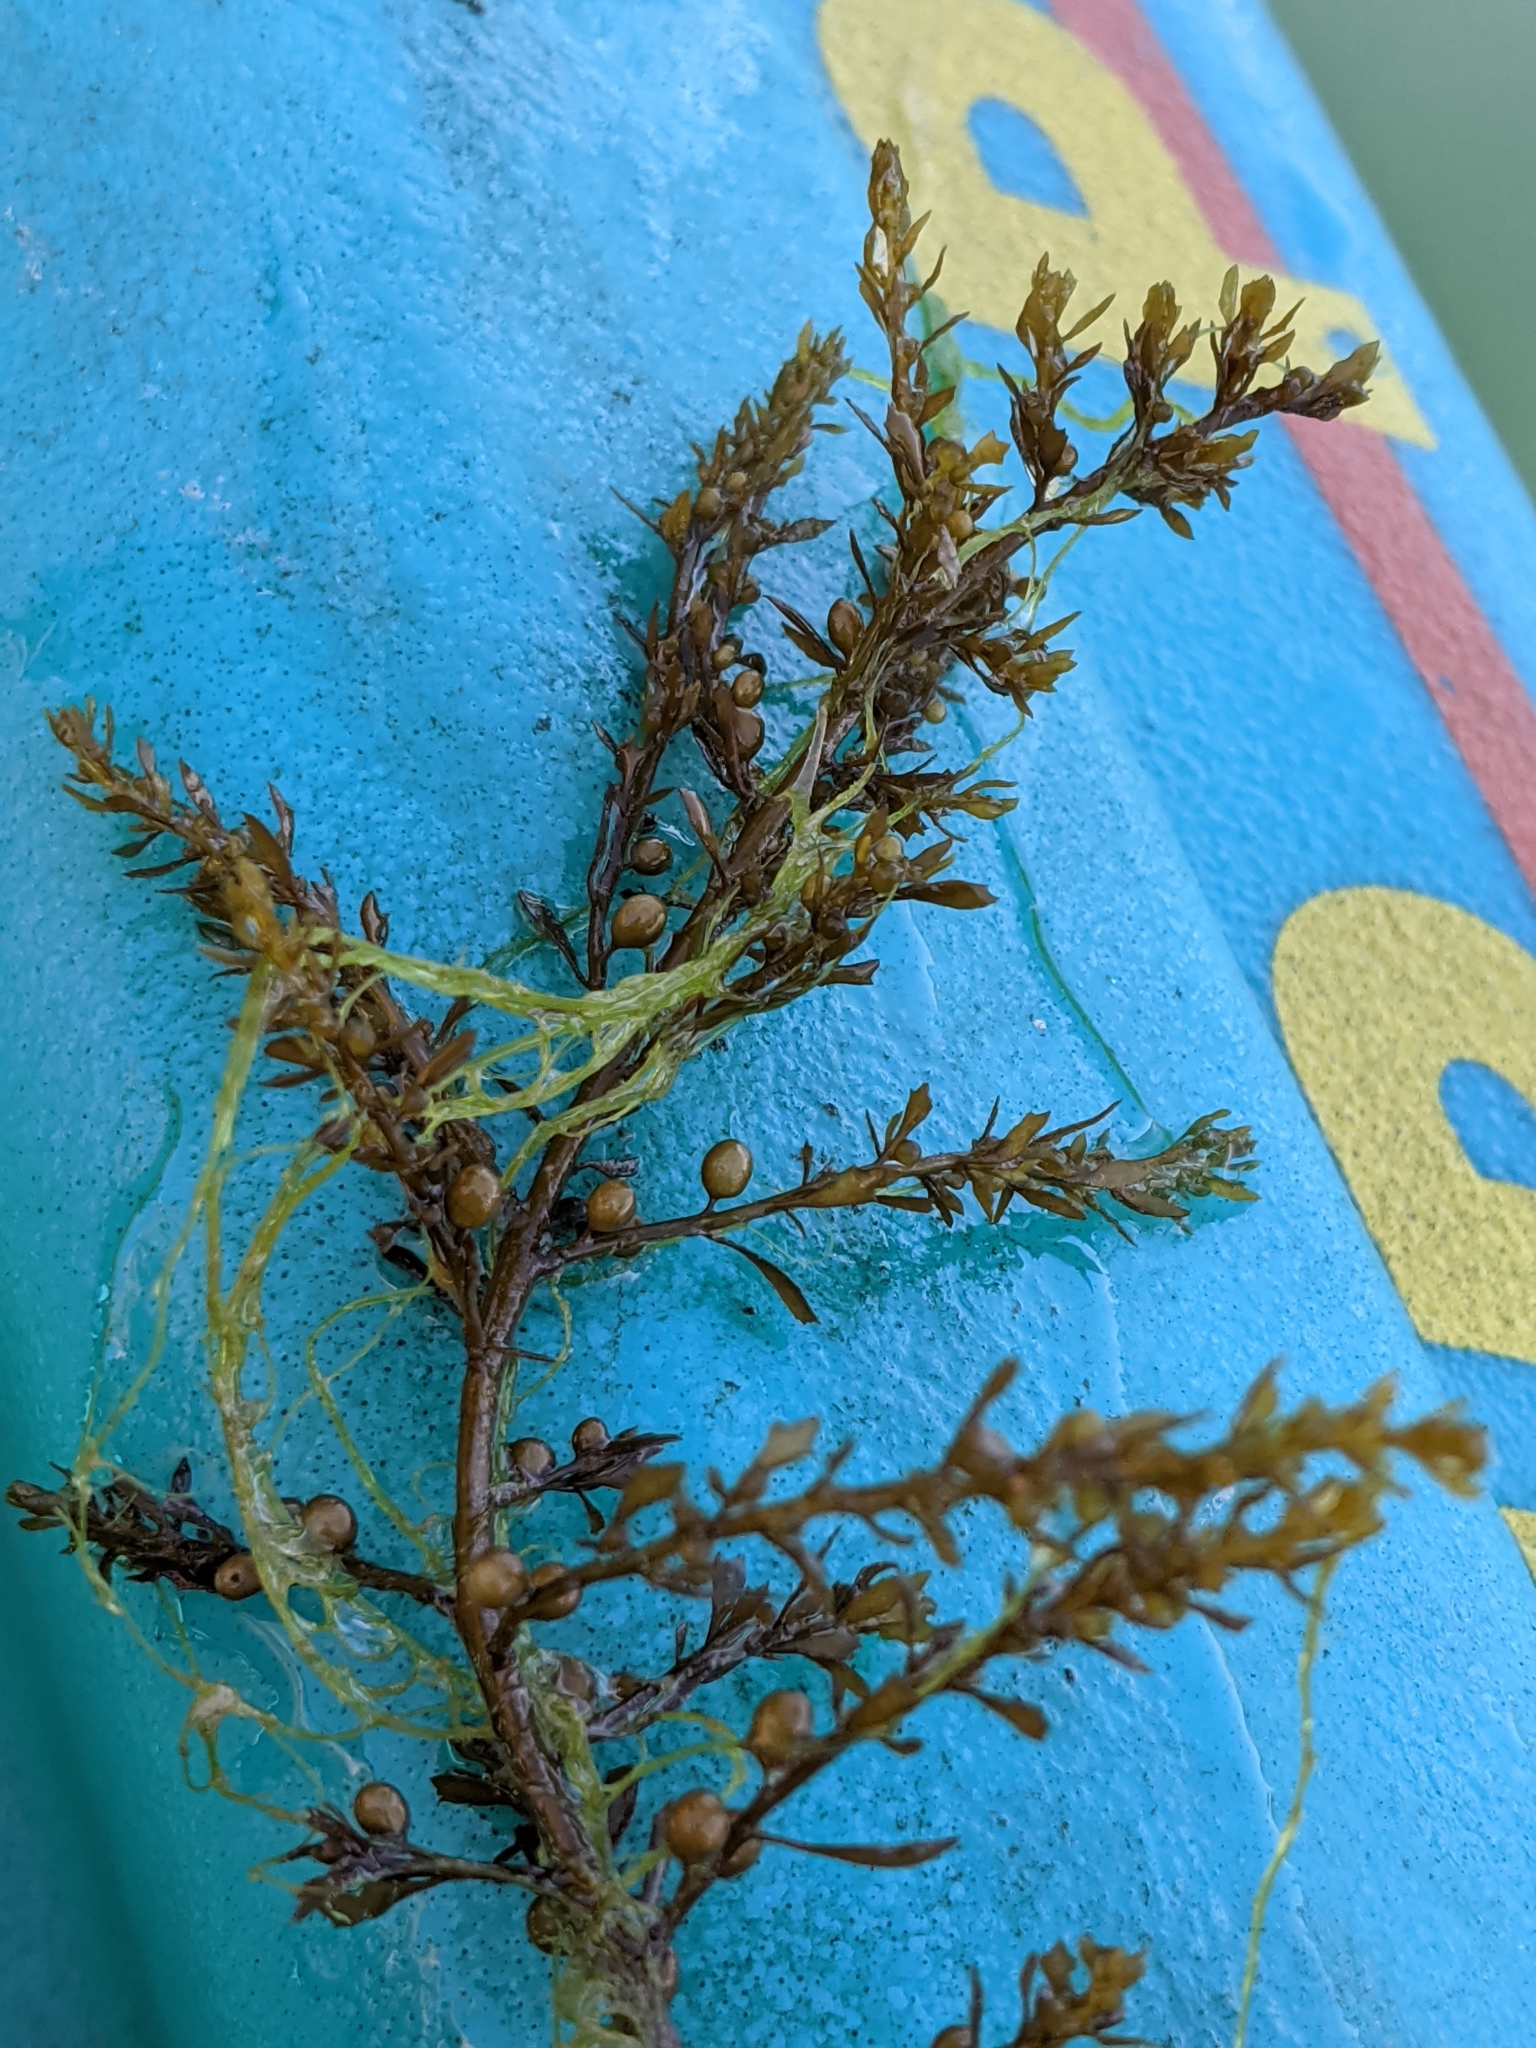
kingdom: Chromista
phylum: Ochrophyta
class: Phaeophyceae
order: Fucales
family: Sargassaceae
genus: Sargassum
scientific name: Sargassum muticum
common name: Japweed
